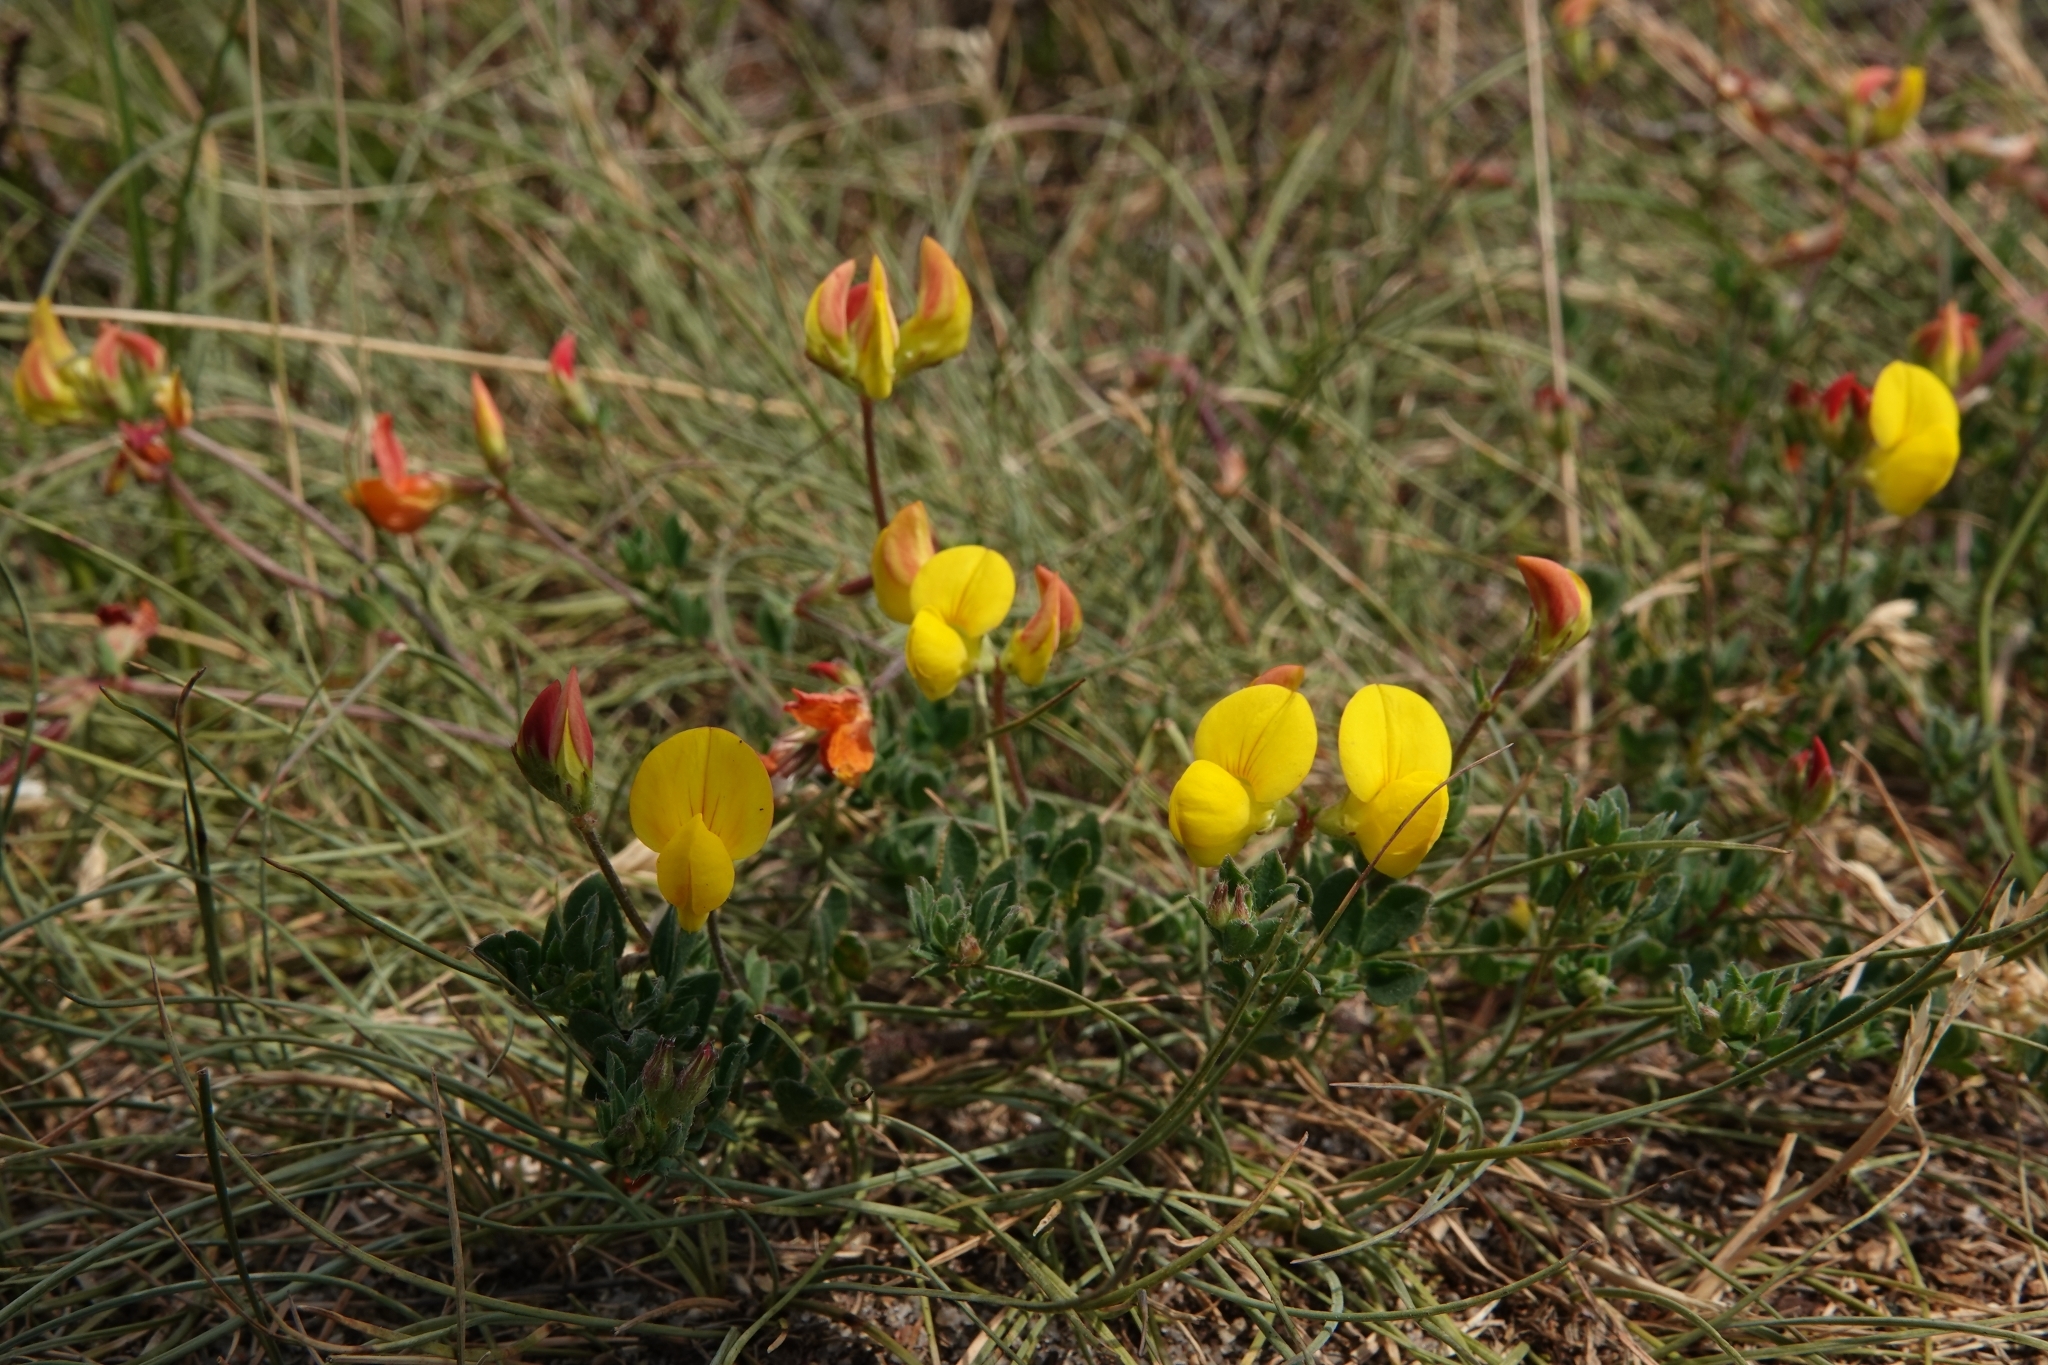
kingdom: Plantae
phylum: Tracheophyta
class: Magnoliopsida
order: Fabales
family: Fabaceae
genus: Lotus
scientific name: Lotus corniculatus
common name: Common bird's-foot-trefoil
